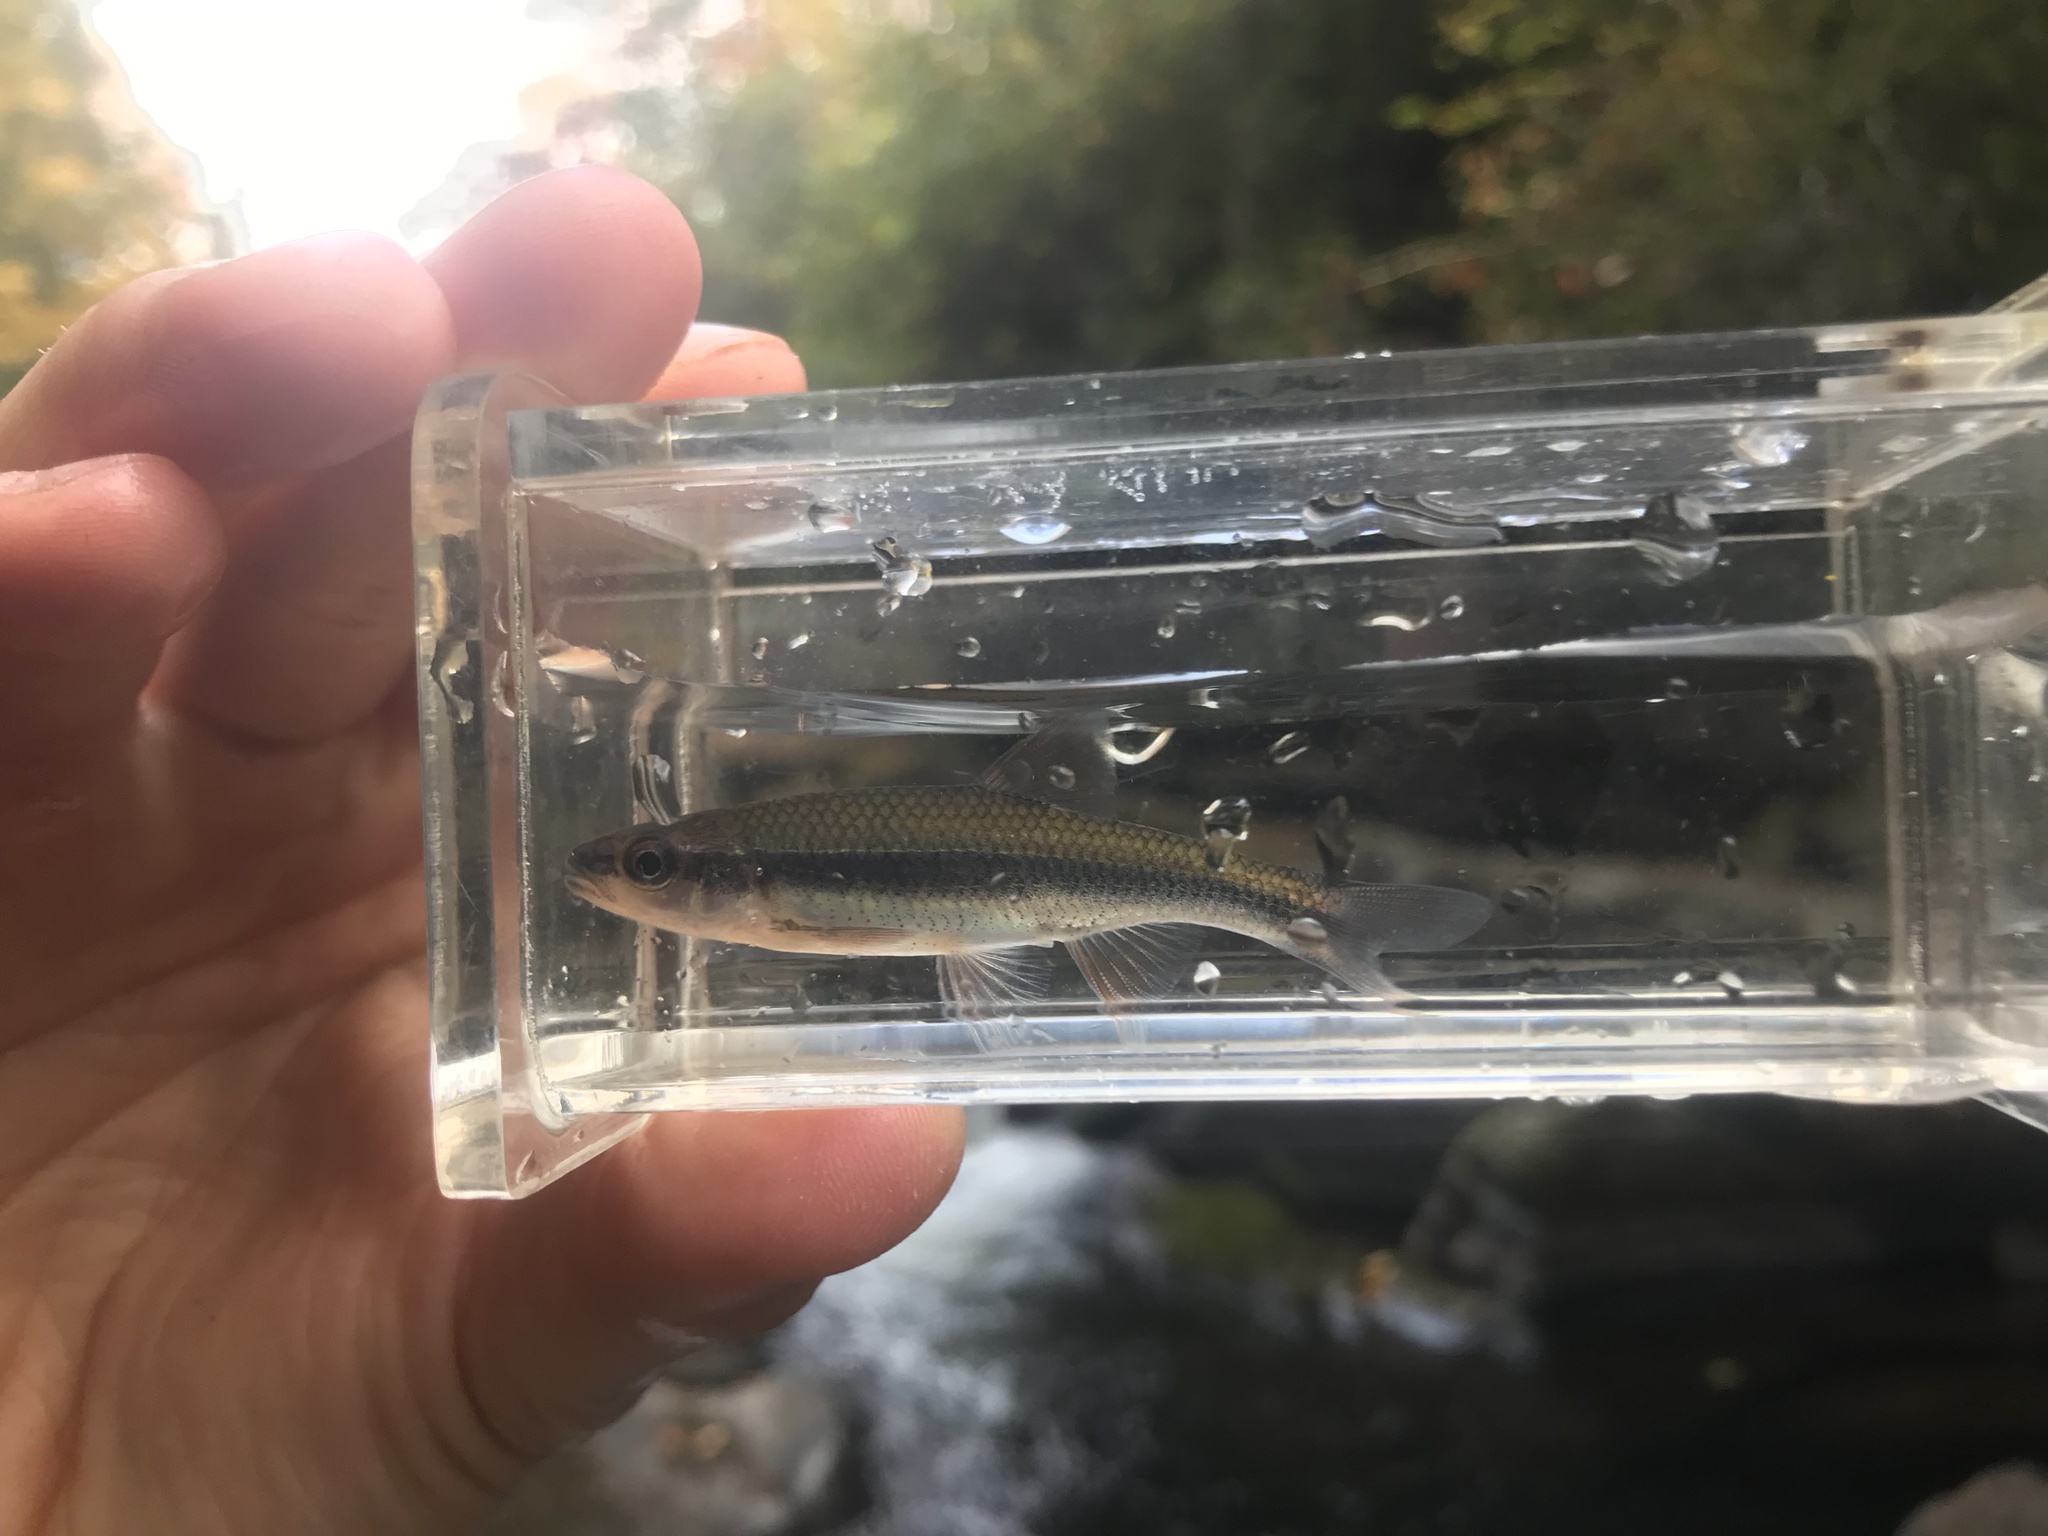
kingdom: Animalia
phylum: Chordata
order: Cypriniformes
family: Cyprinidae
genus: Notropis
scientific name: Notropis lutipinnis
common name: Yellowfin shiner
